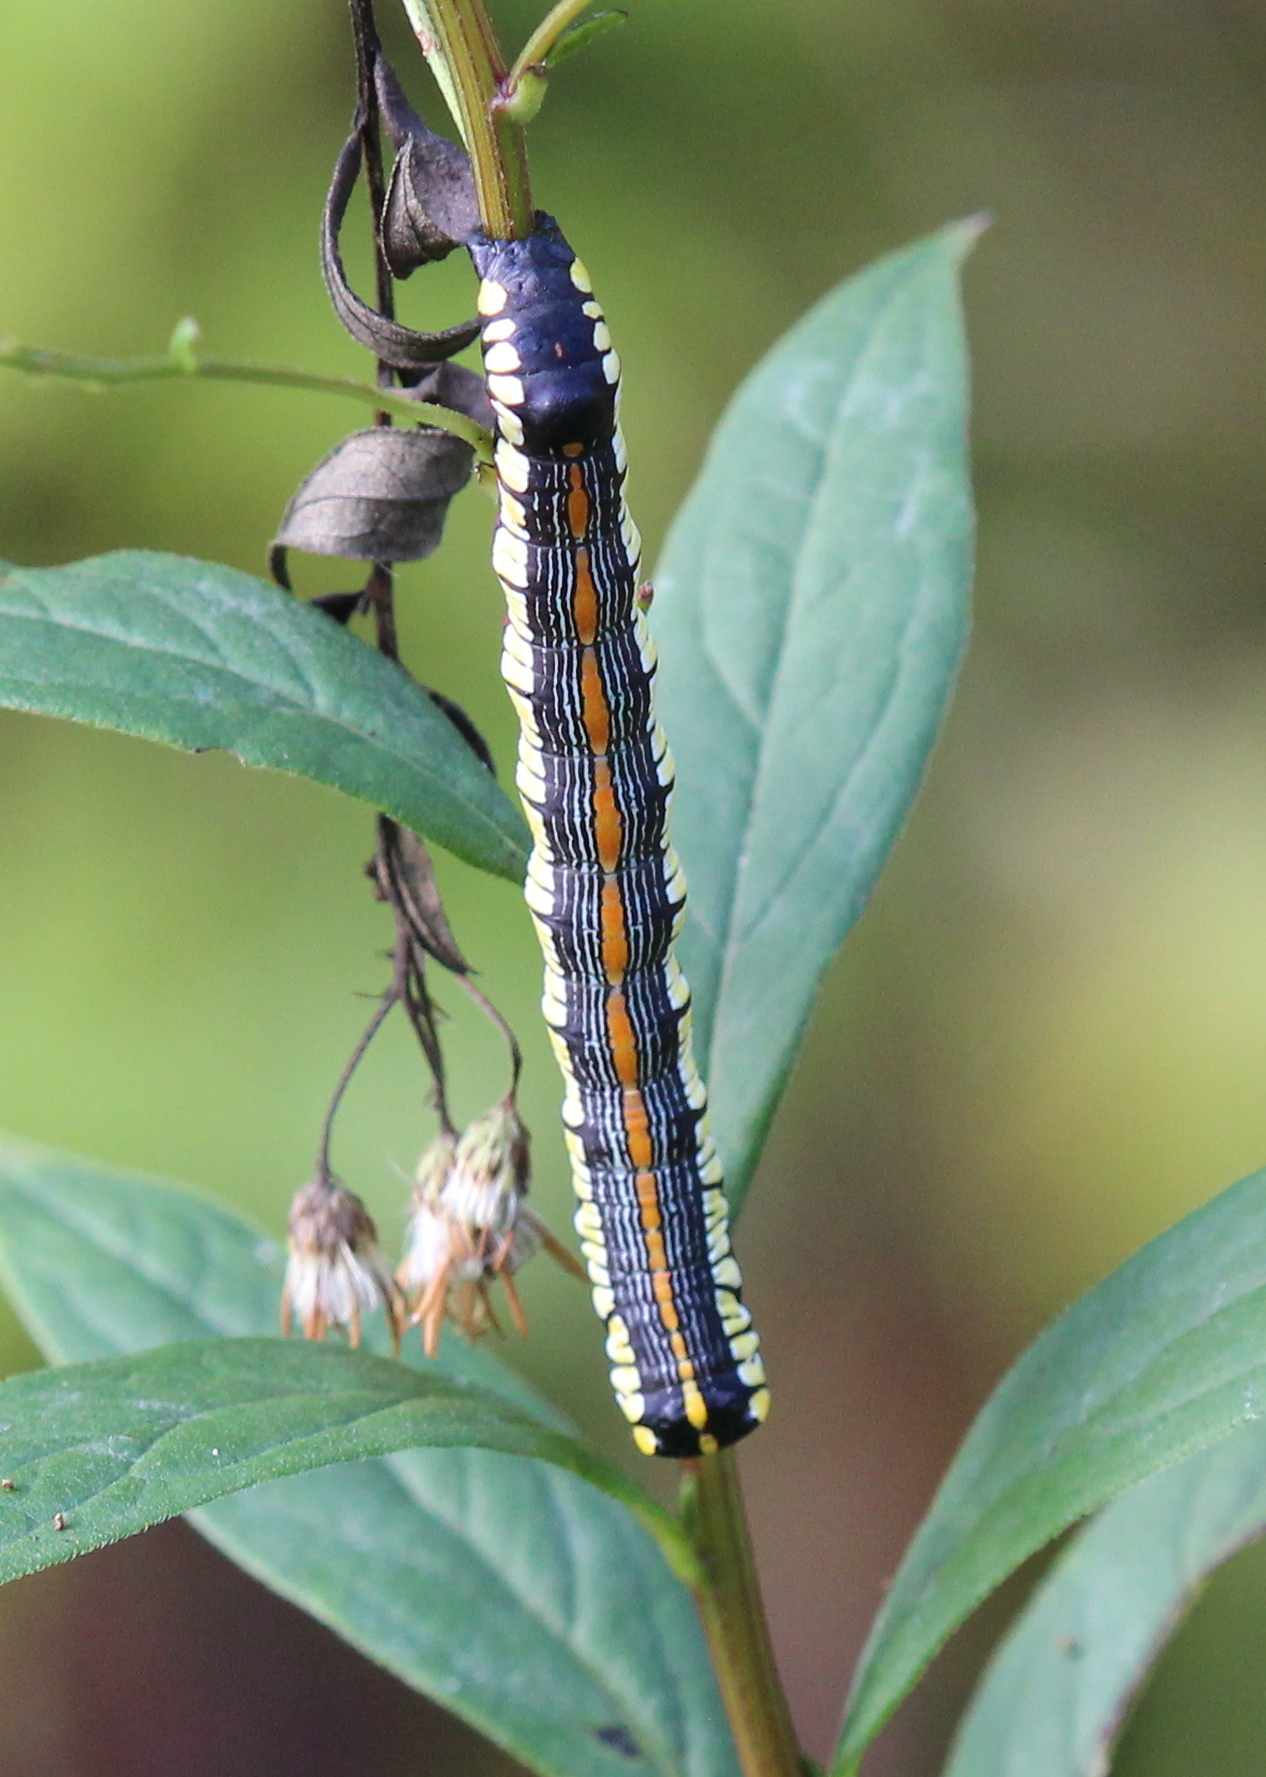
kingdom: Animalia
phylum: Arthropoda
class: Insecta
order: Lepidoptera
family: Noctuidae
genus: Cucullia
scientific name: Cucullia convexipennis
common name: Brown-hooded owlet
